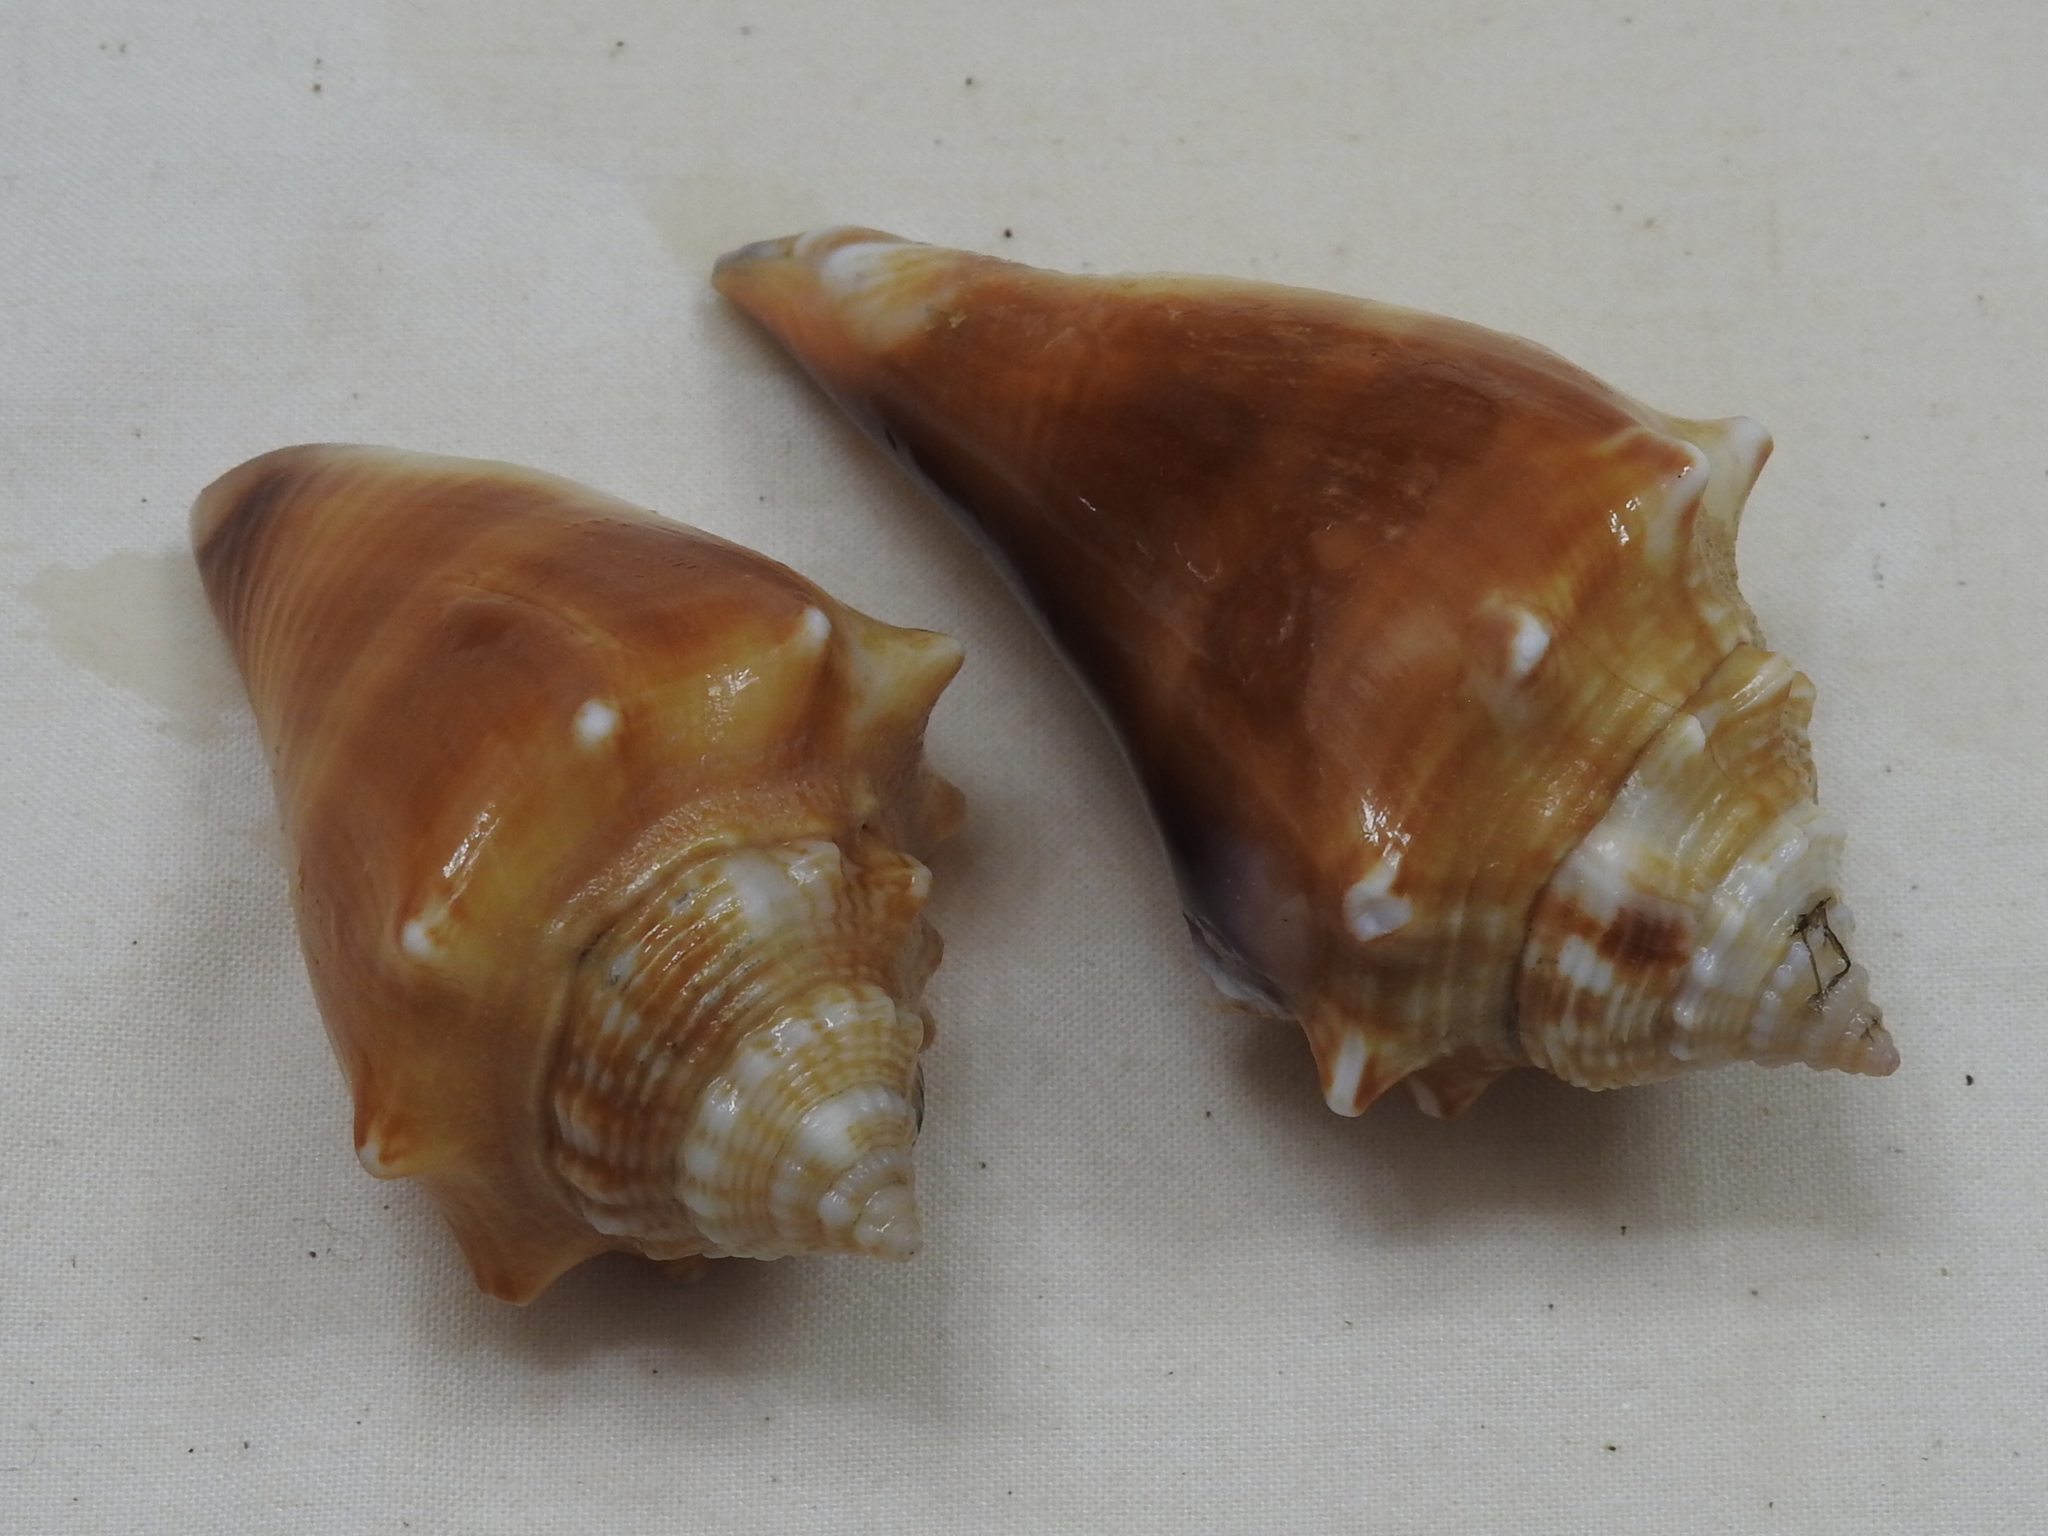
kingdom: Animalia
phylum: Mollusca
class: Gastropoda
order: Littorinimorpha
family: Strombidae
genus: Strombus
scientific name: Strombus alatus
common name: Florida fighting conch
